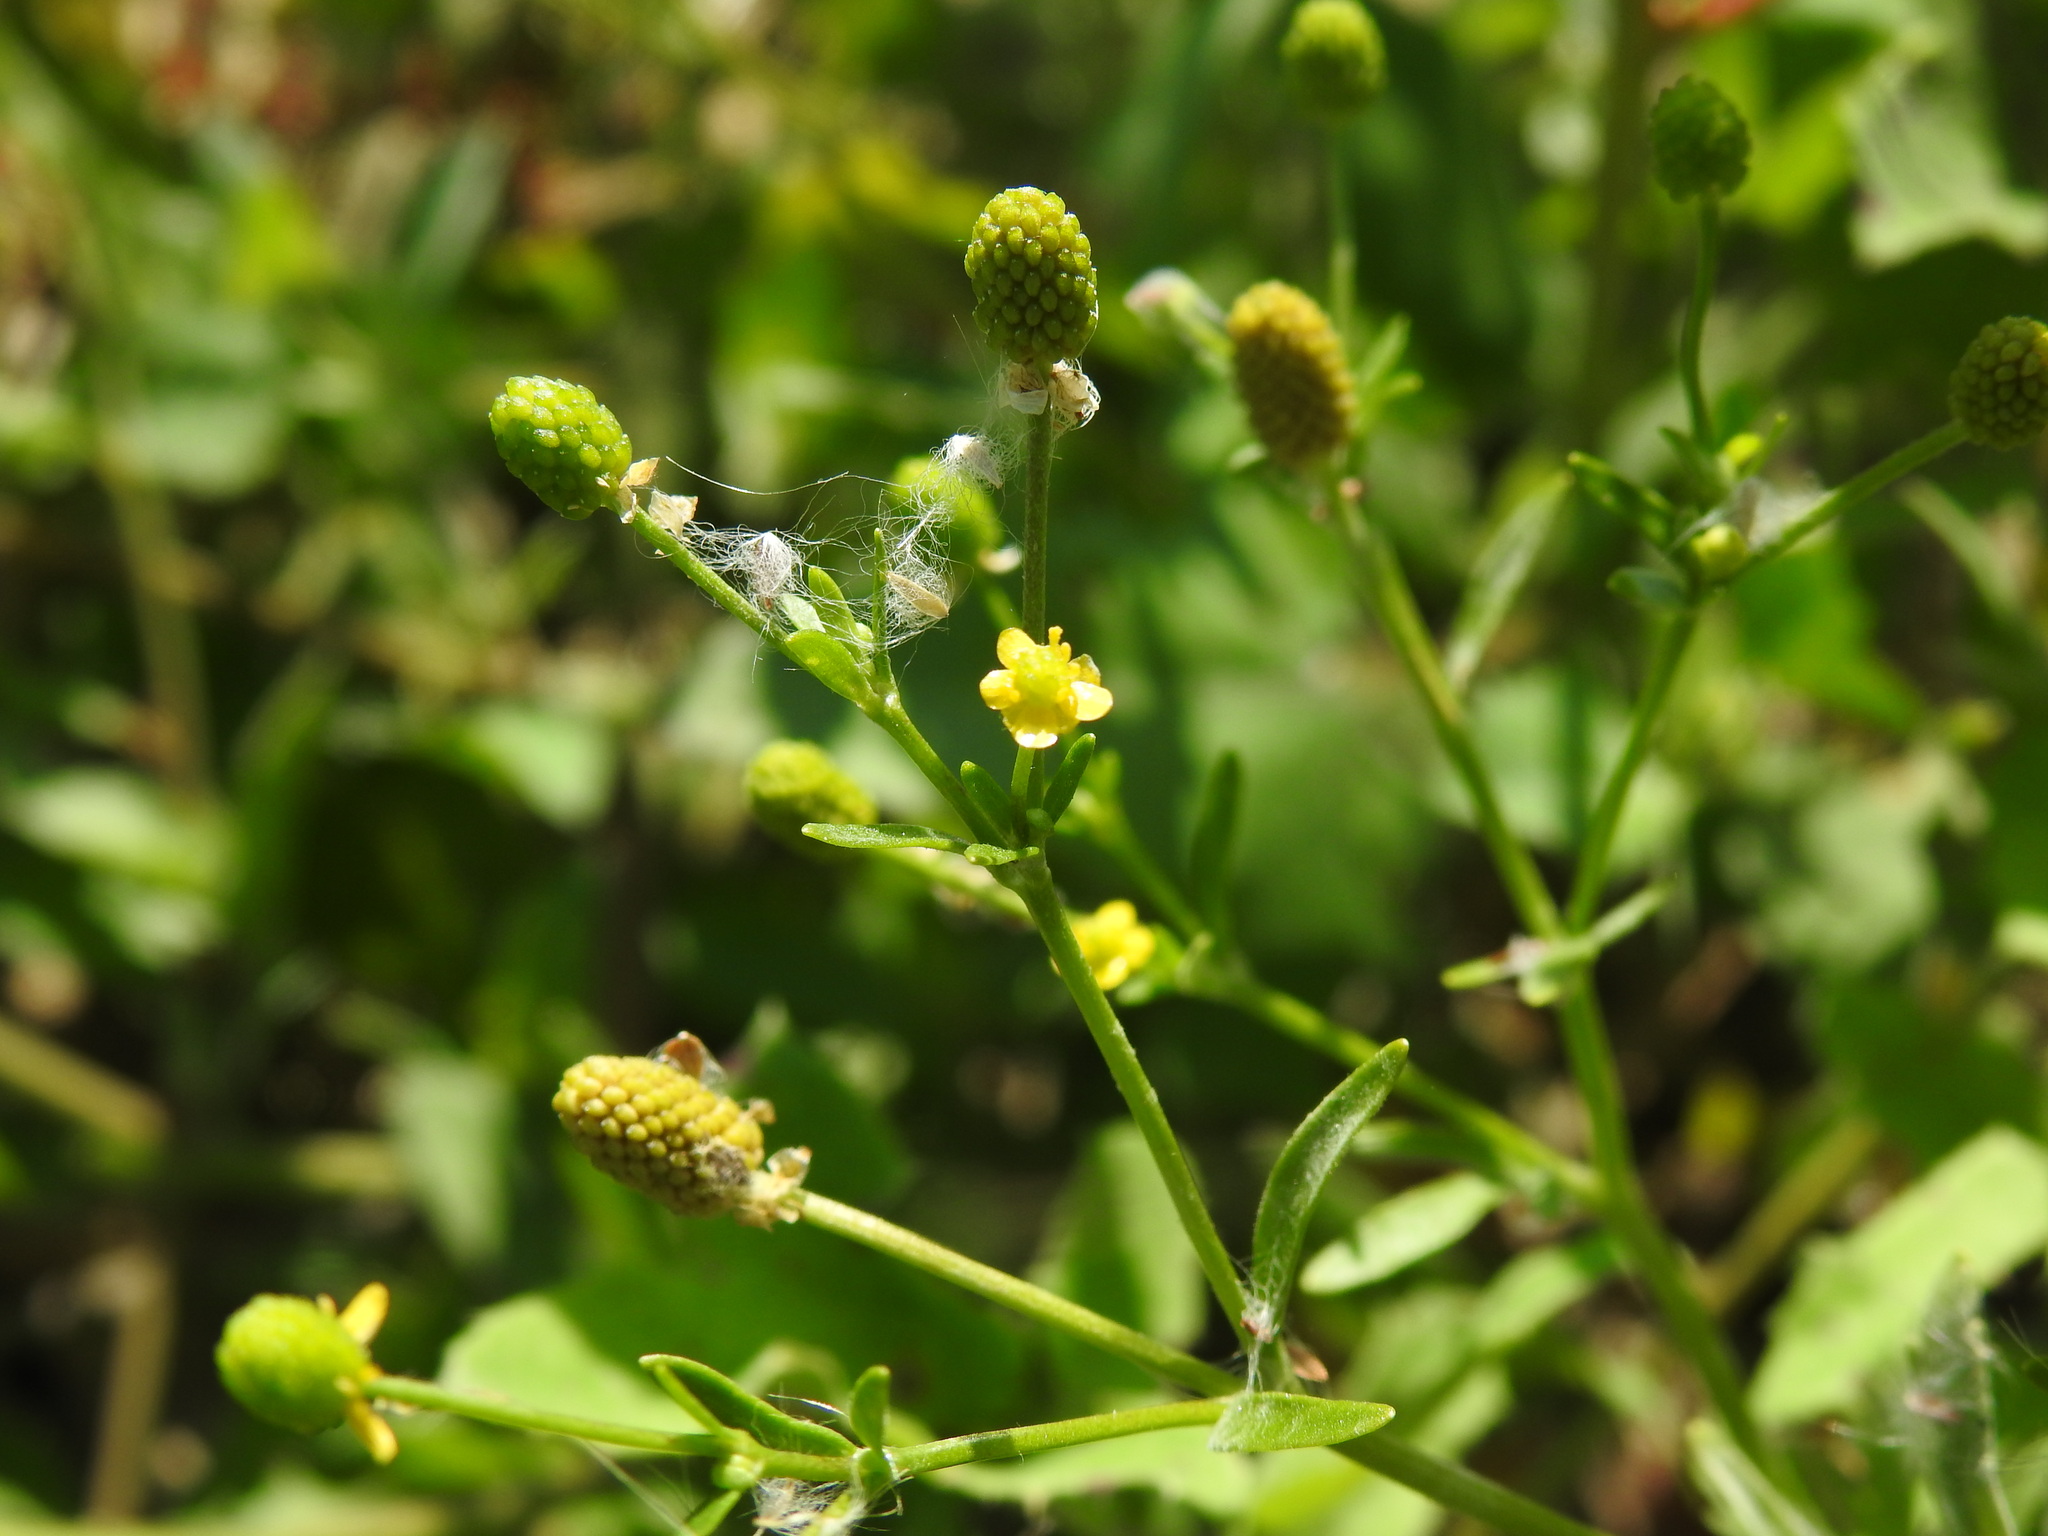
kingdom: Plantae
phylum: Tracheophyta
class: Magnoliopsida
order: Ranunculales
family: Ranunculaceae
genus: Ranunculus
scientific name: Ranunculus sceleratus
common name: Celery-leaved buttercup
